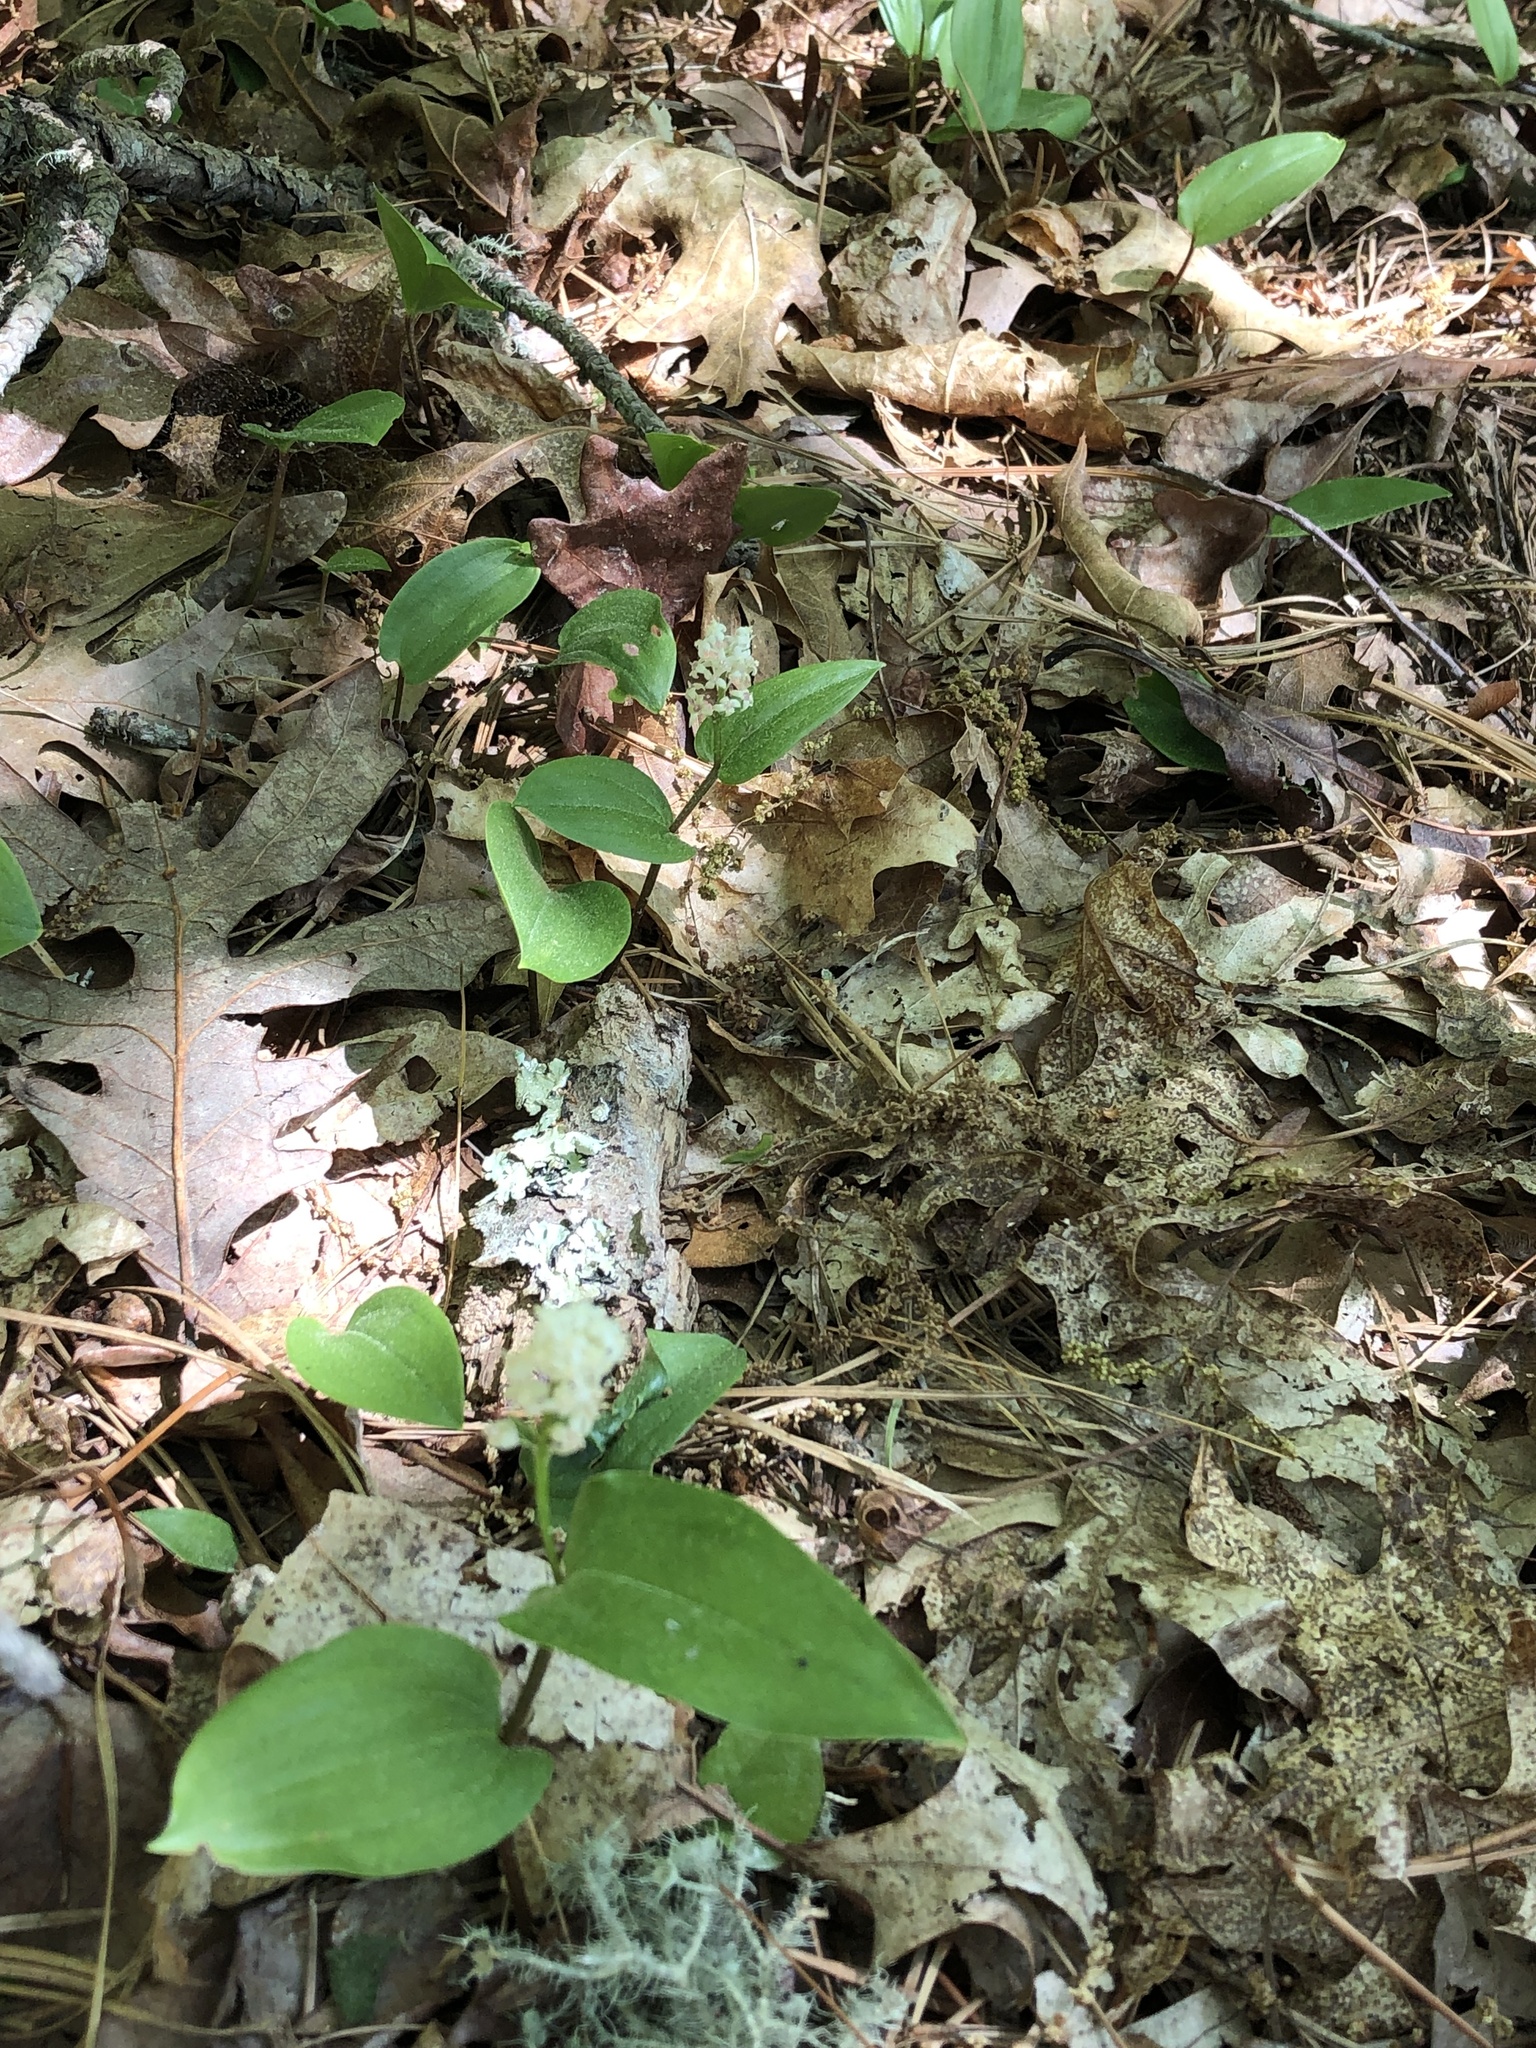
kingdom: Plantae
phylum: Tracheophyta
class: Liliopsida
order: Asparagales
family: Asparagaceae
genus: Maianthemum
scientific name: Maianthemum canadense
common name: False lily-of-the-valley
